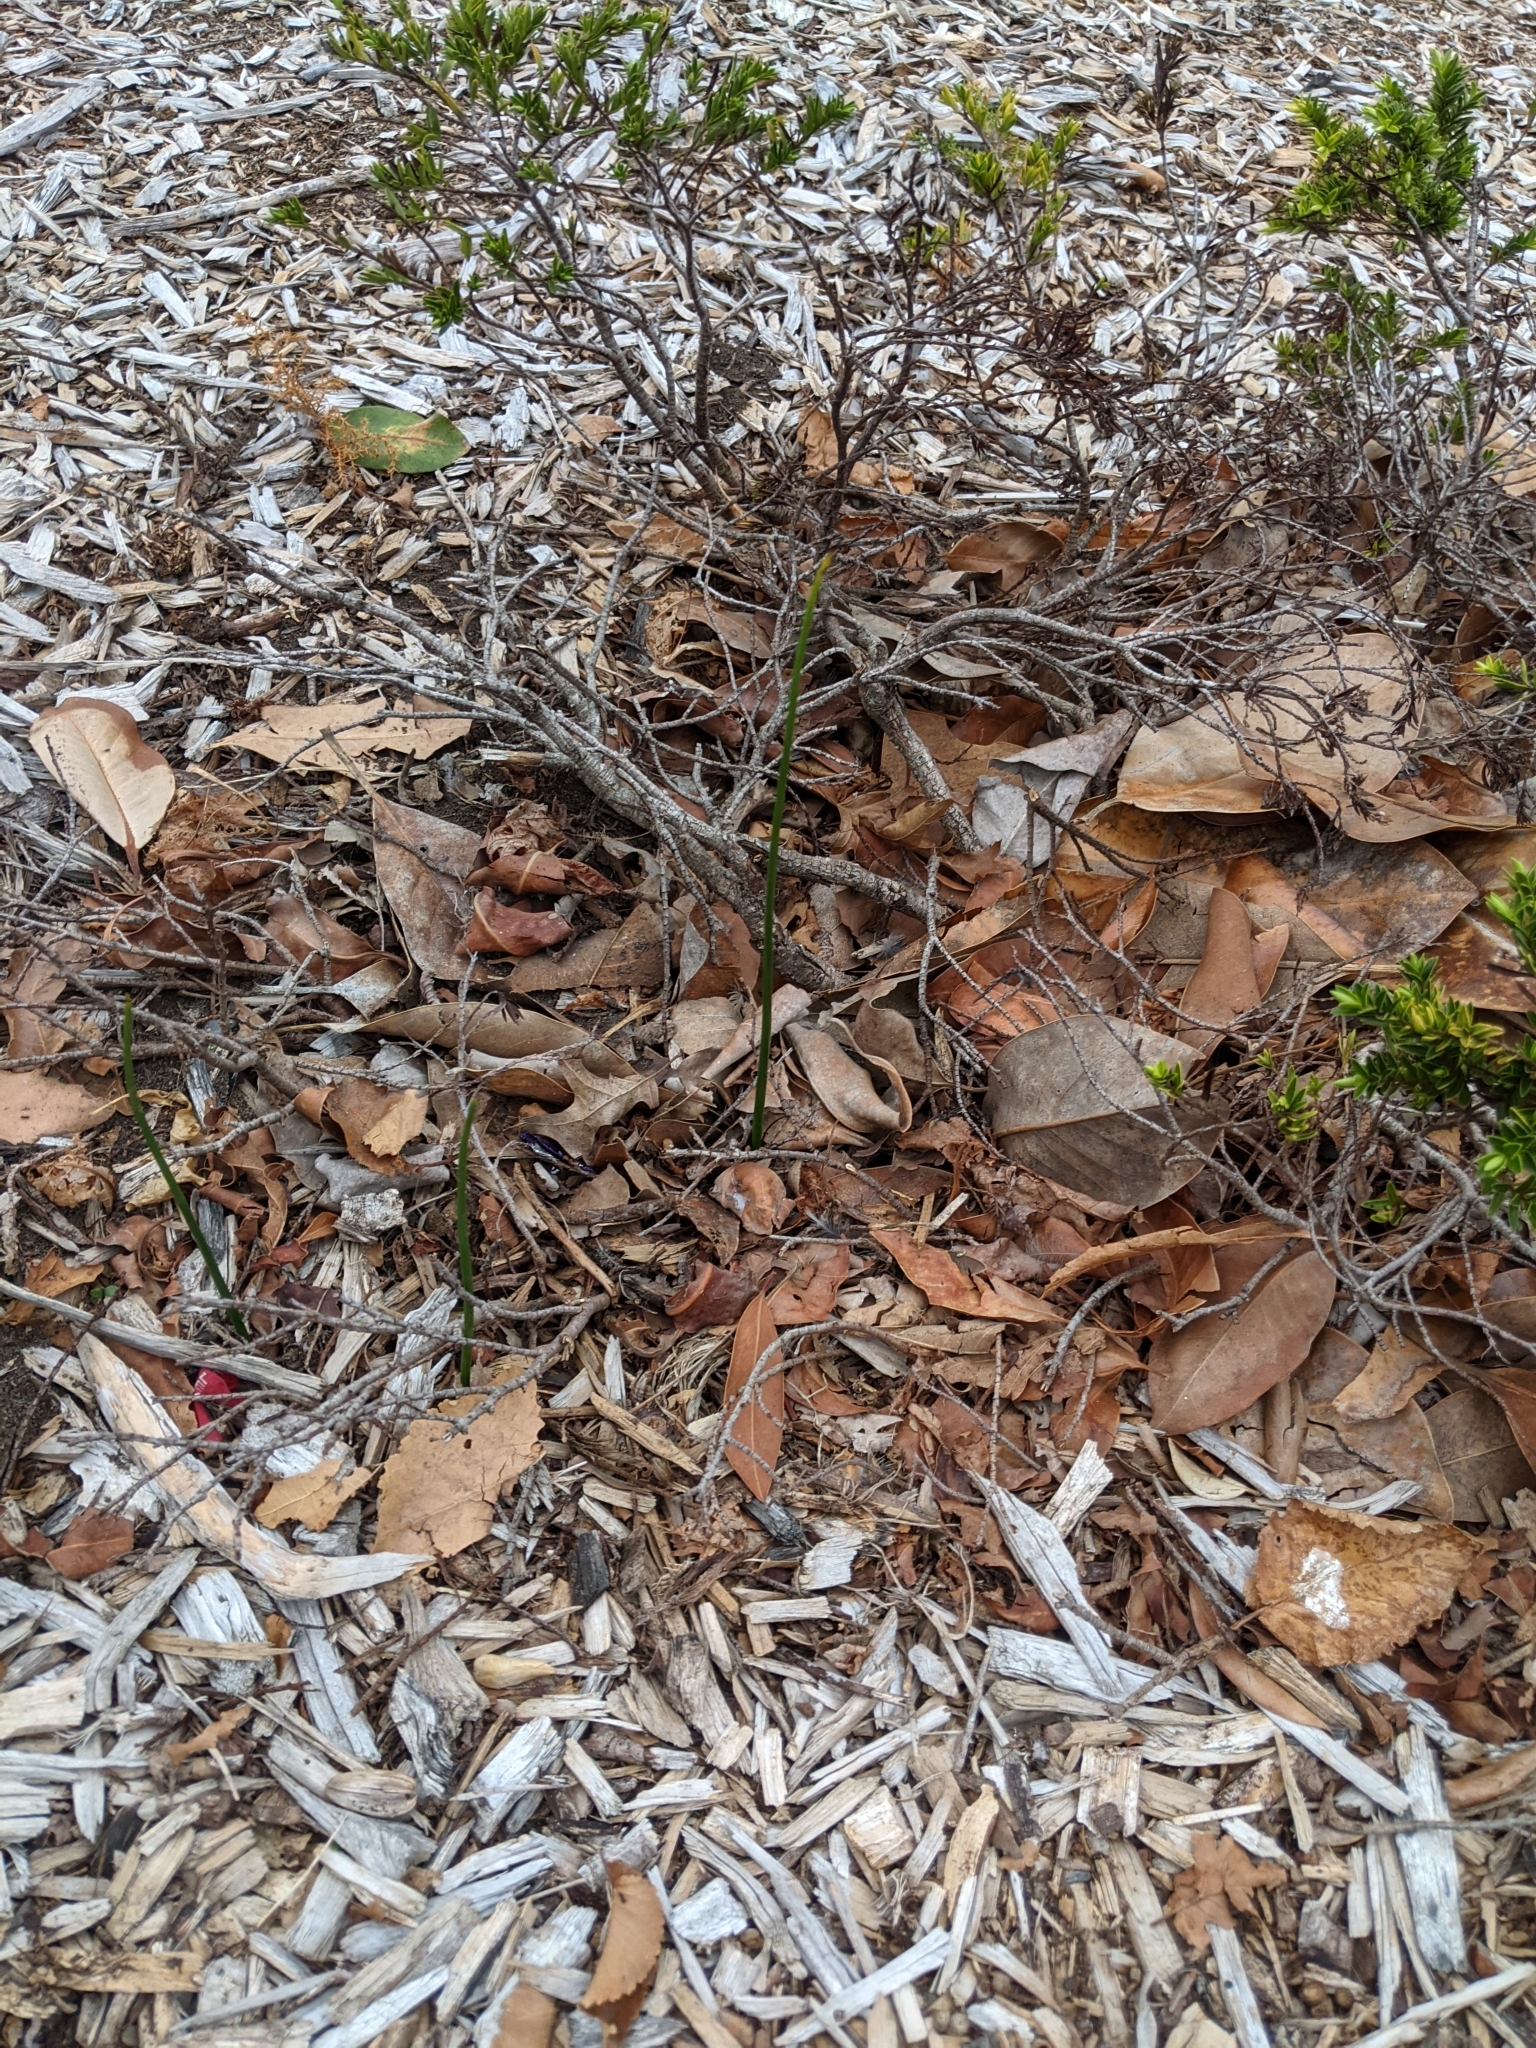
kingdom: Plantae
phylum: Tracheophyta
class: Liliopsida
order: Asparagales
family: Orchidaceae
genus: Microtis
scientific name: Microtis unifolia
